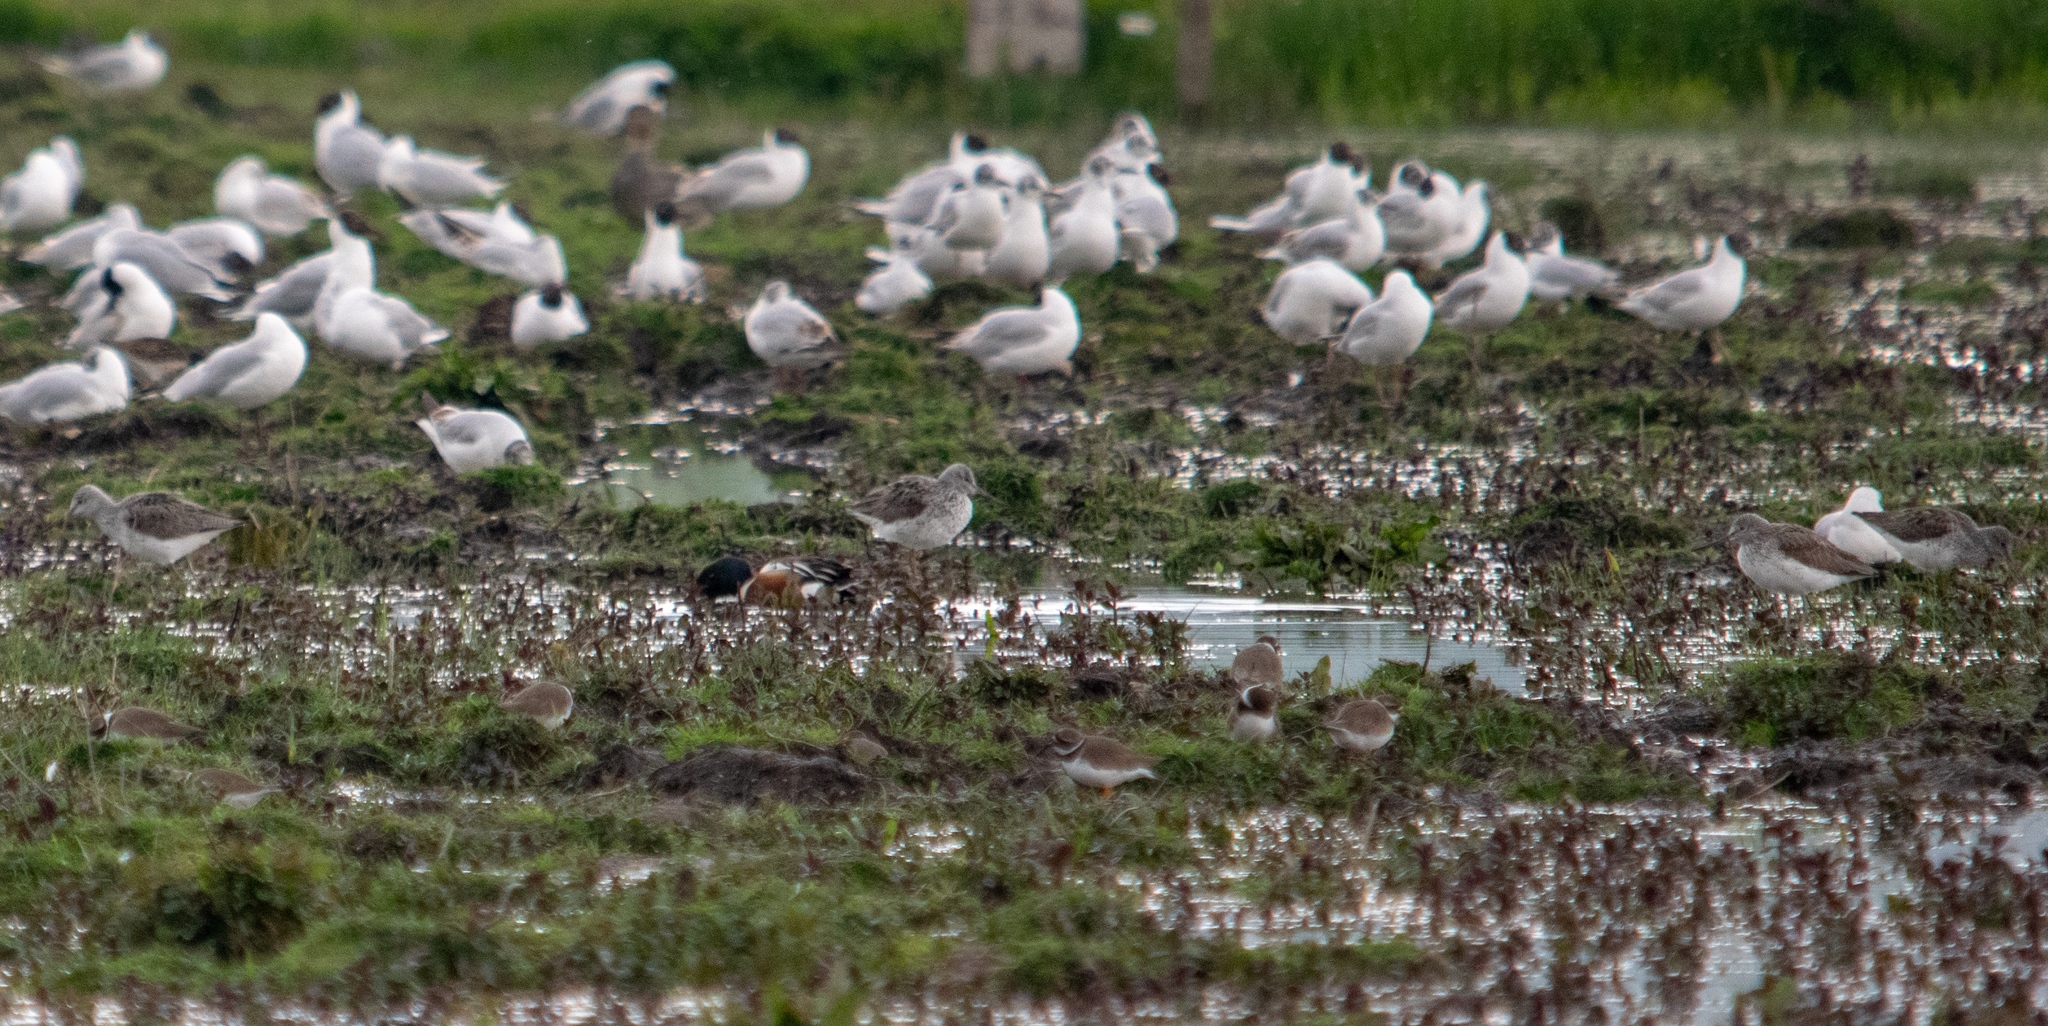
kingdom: Animalia
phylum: Chordata
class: Aves
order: Charadriiformes
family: Scolopacidae
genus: Tringa
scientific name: Tringa nebularia
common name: Common greenshank
